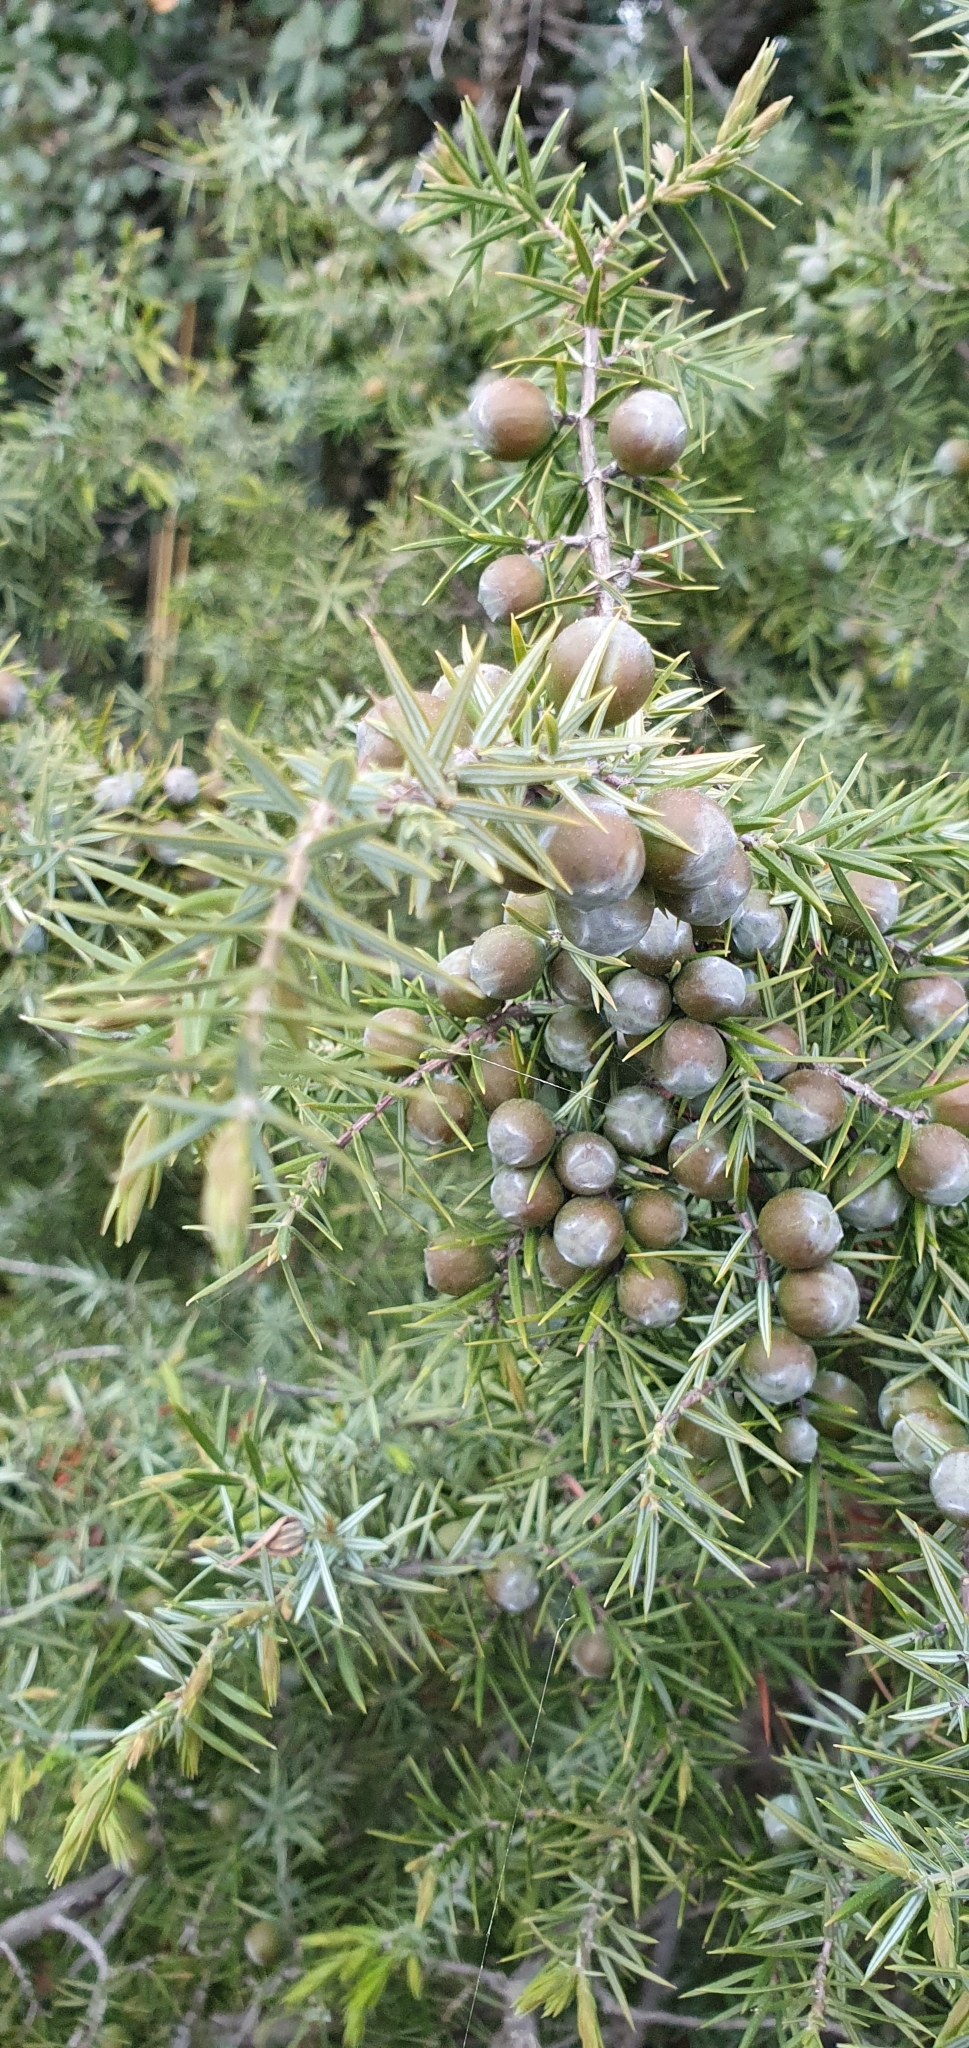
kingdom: Plantae
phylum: Tracheophyta
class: Pinopsida
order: Pinales
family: Cupressaceae
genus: Juniperus
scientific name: Juniperus oxycedrus
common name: Prickly juniper
